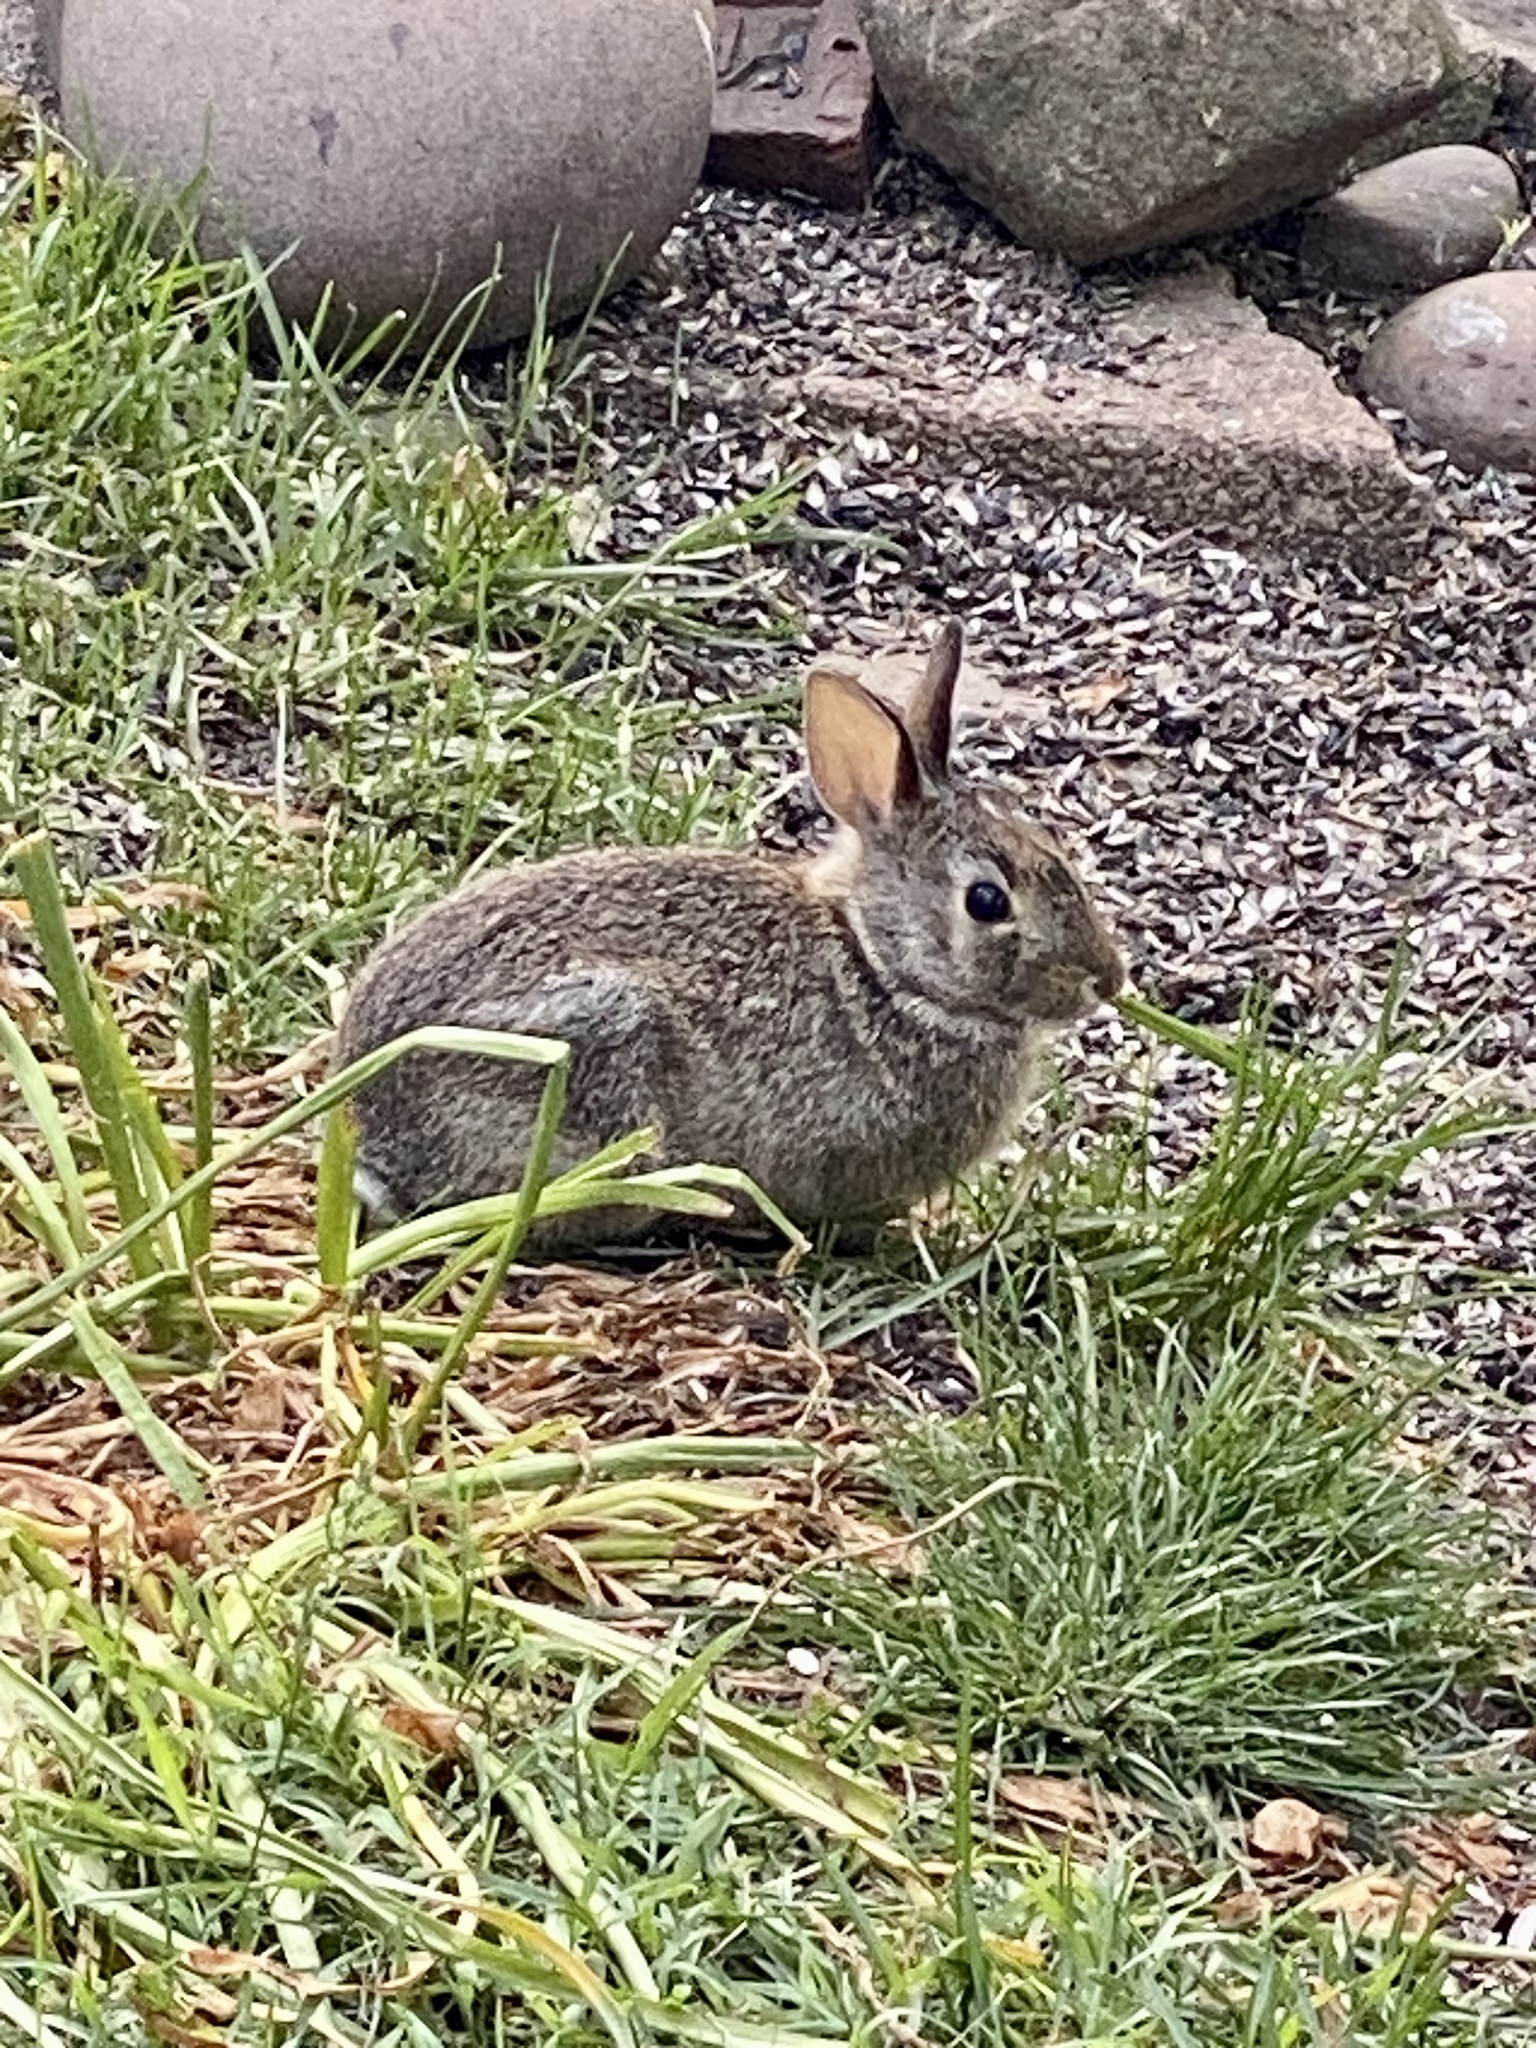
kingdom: Animalia
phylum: Chordata
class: Mammalia
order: Lagomorpha
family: Leporidae
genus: Sylvilagus
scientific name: Sylvilagus floridanus
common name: Eastern cottontail
